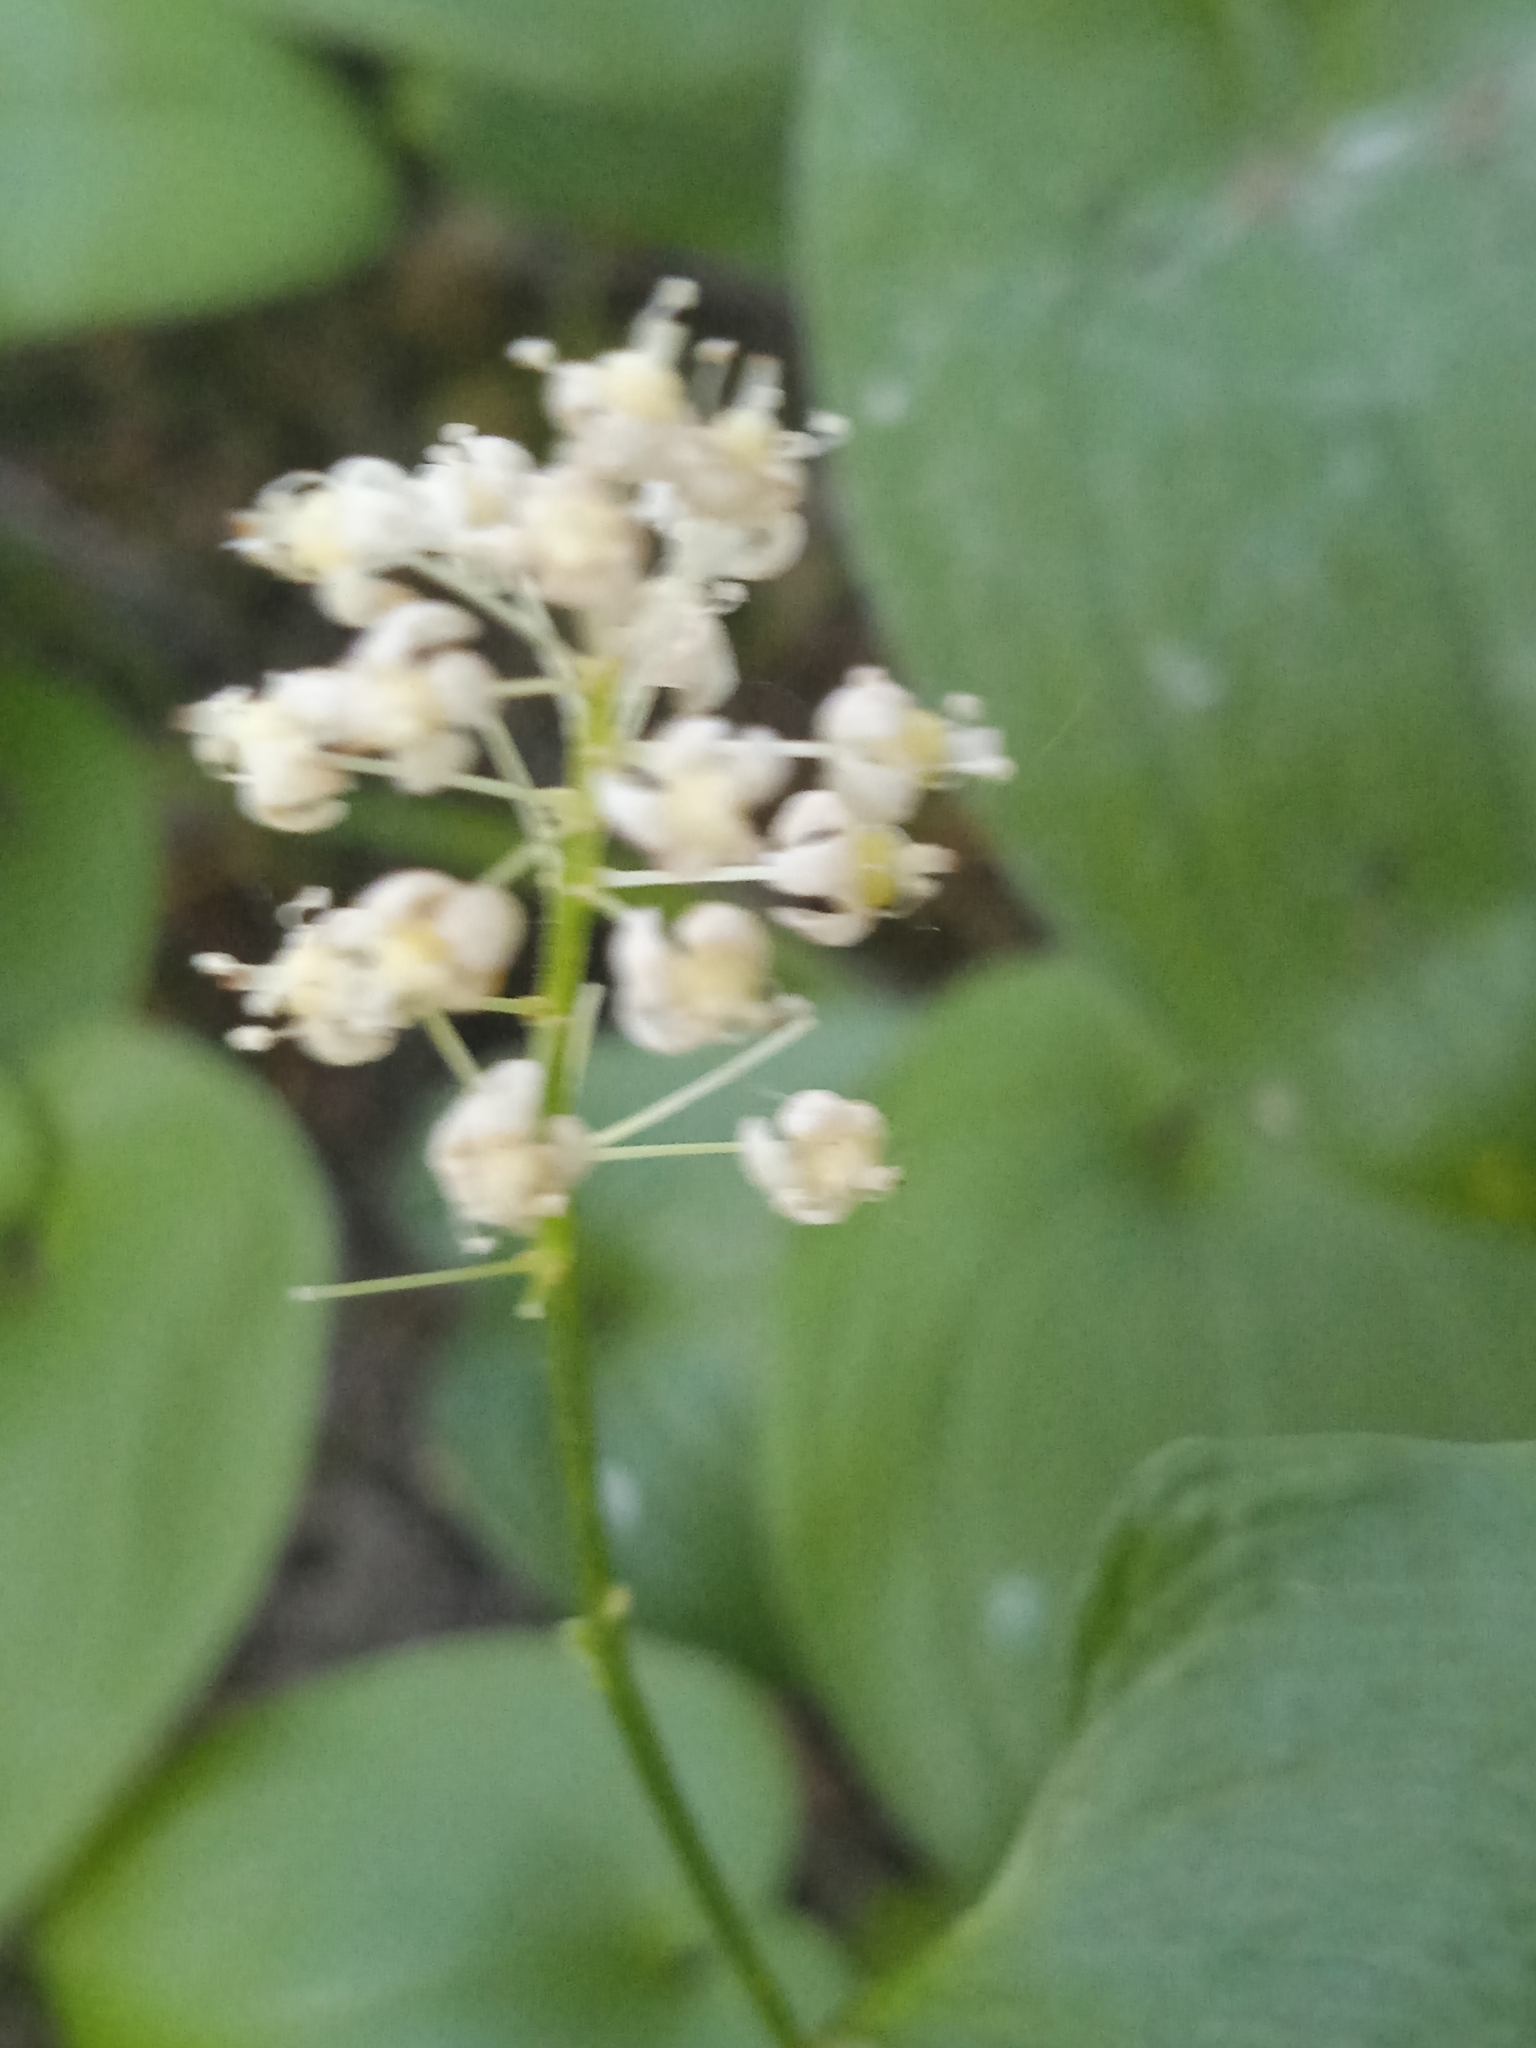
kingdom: Plantae
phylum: Tracheophyta
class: Liliopsida
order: Asparagales
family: Asparagaceae
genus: Maianthemum
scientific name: Maianthemum bifolium
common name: May lily
